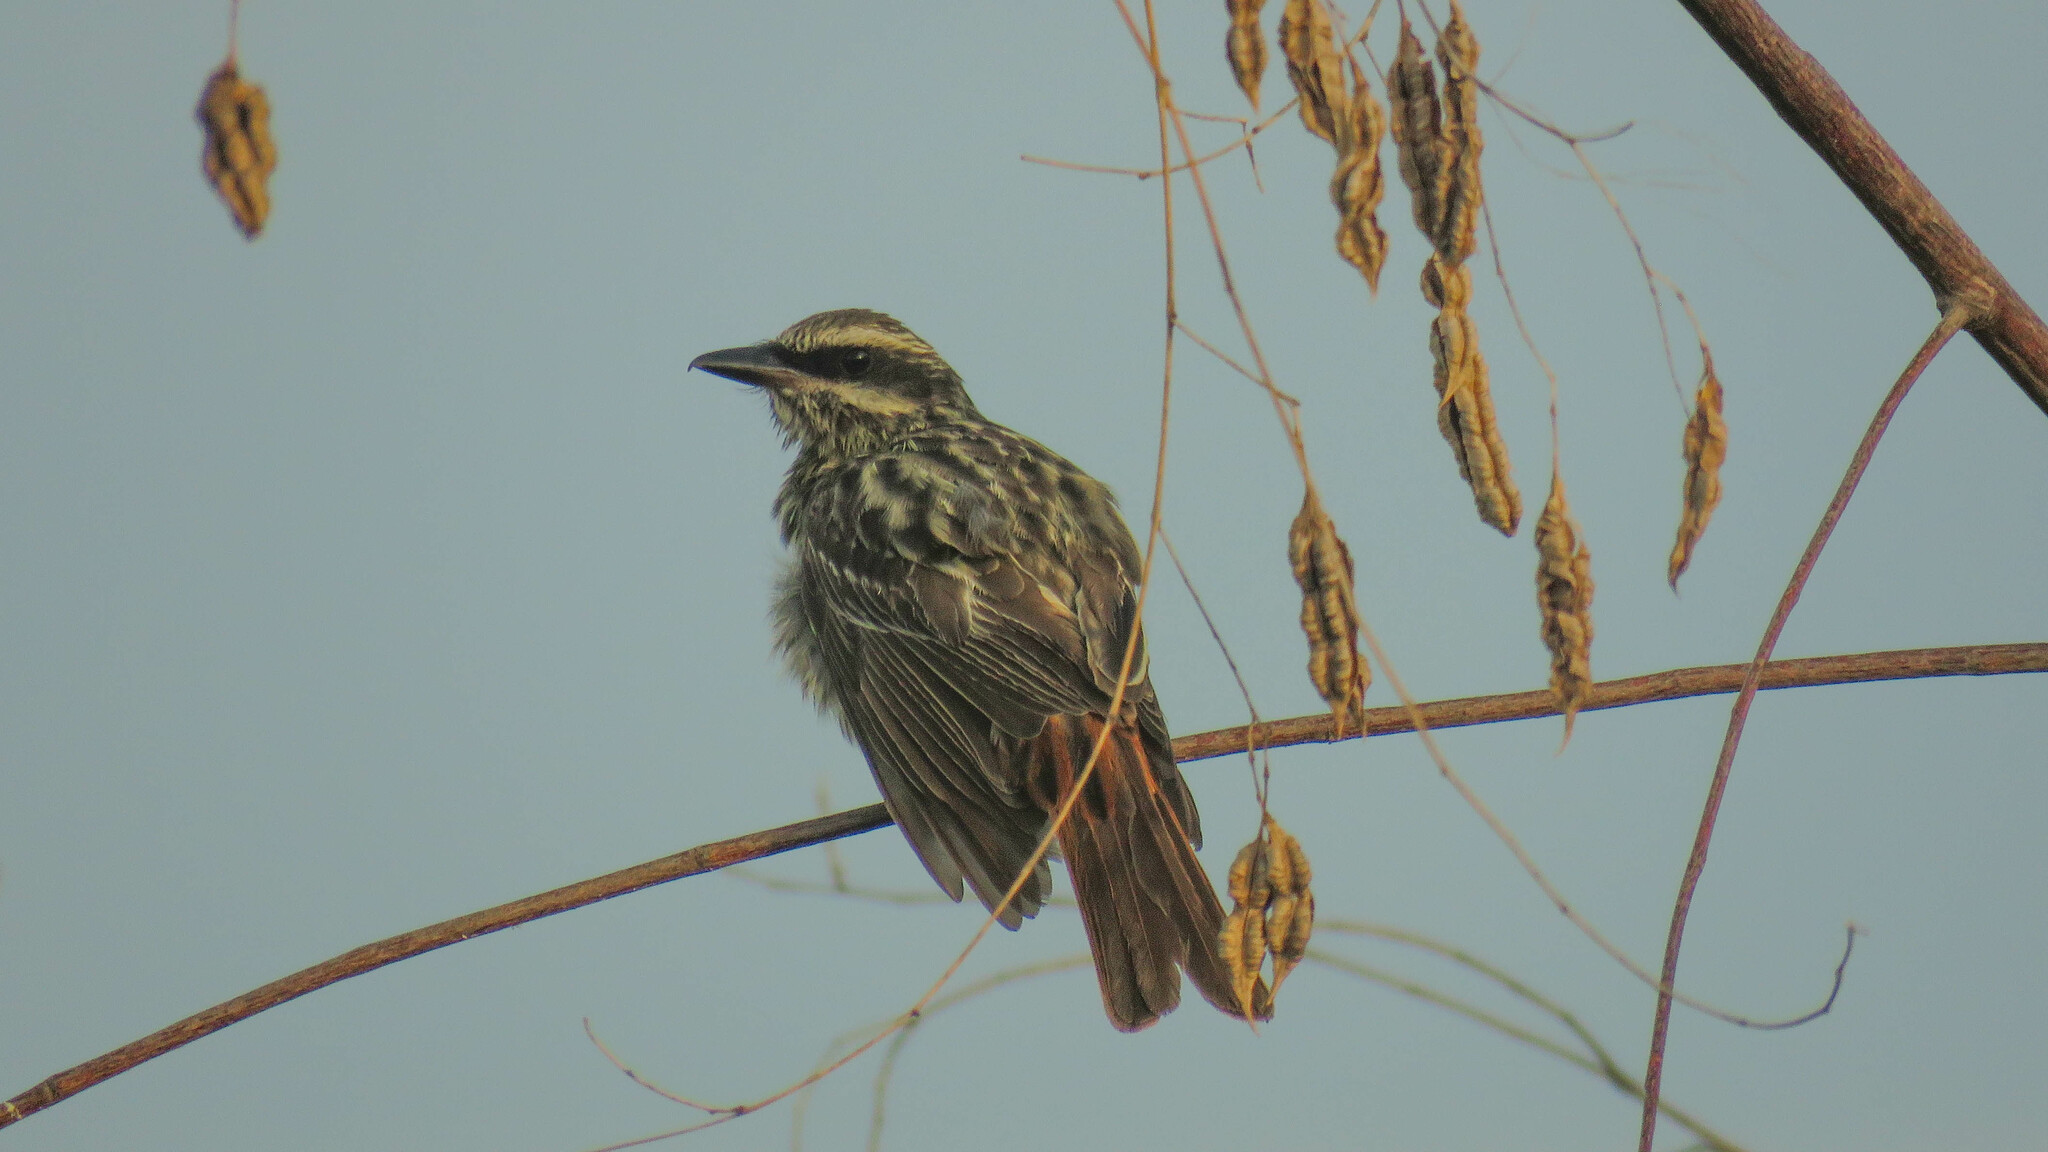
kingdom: Animalia
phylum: Chordata
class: Aves
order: Passeriformes
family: Tyrannidae
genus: Myiodynastes
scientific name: Myiodynastes maculatus
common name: Streaked flycatcher
